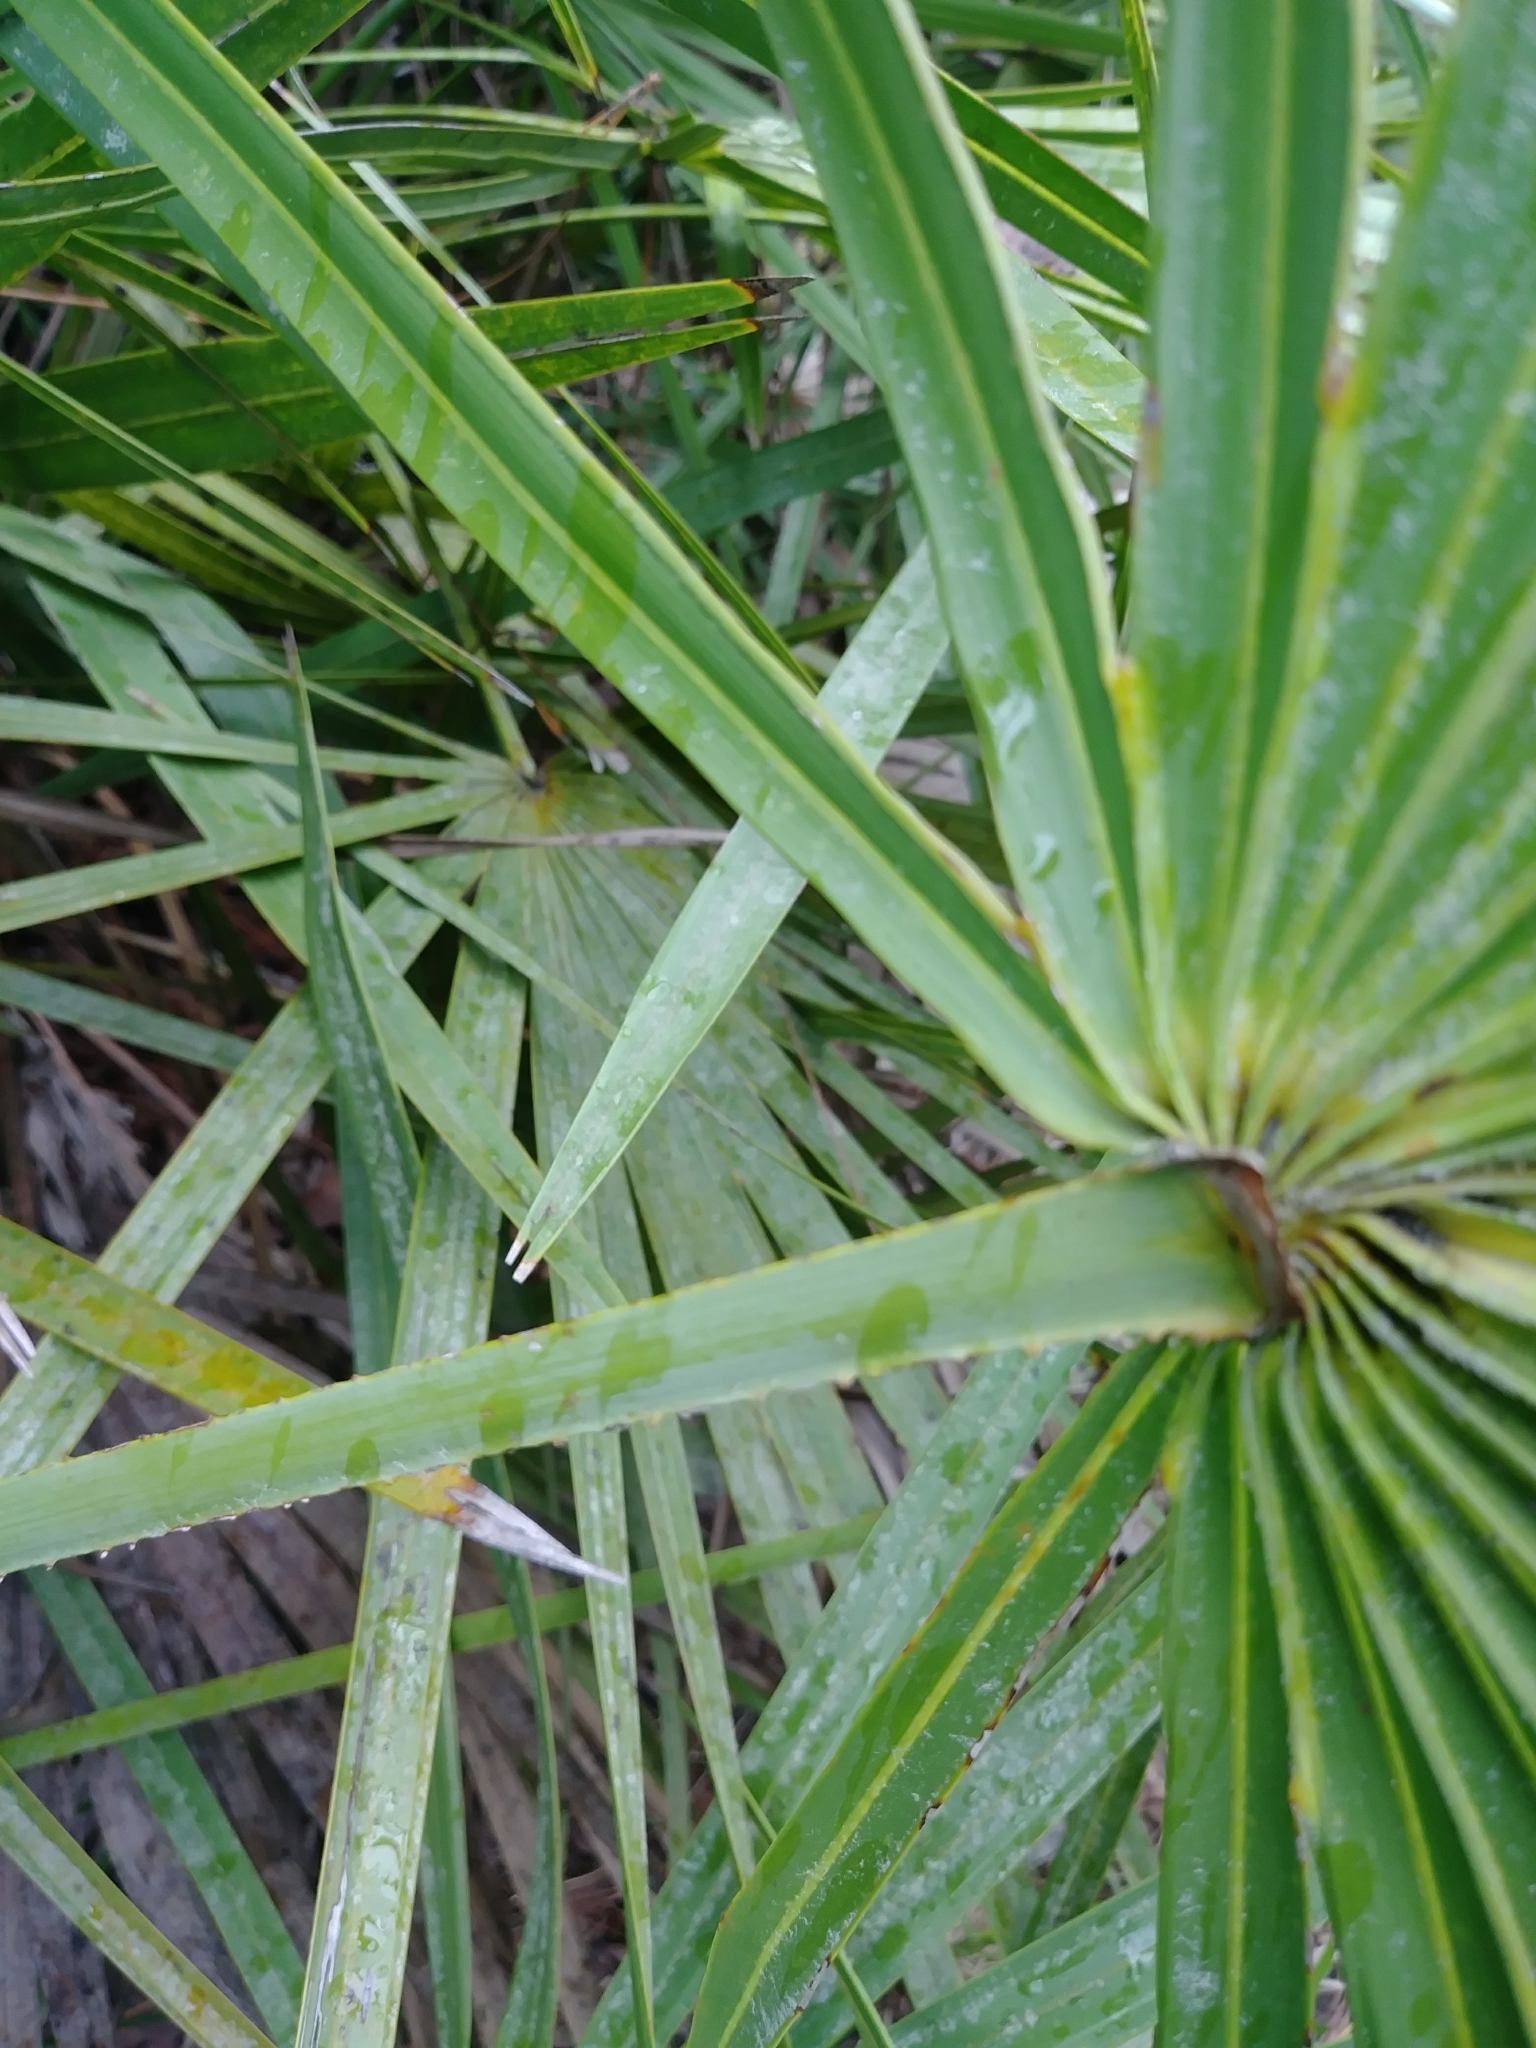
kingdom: Plantae
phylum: Tracheophyta
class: Liliopsida
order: Arecales
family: Arecaceae
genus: Serenoa
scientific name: Serenoa repens
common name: Saw-palmetto
